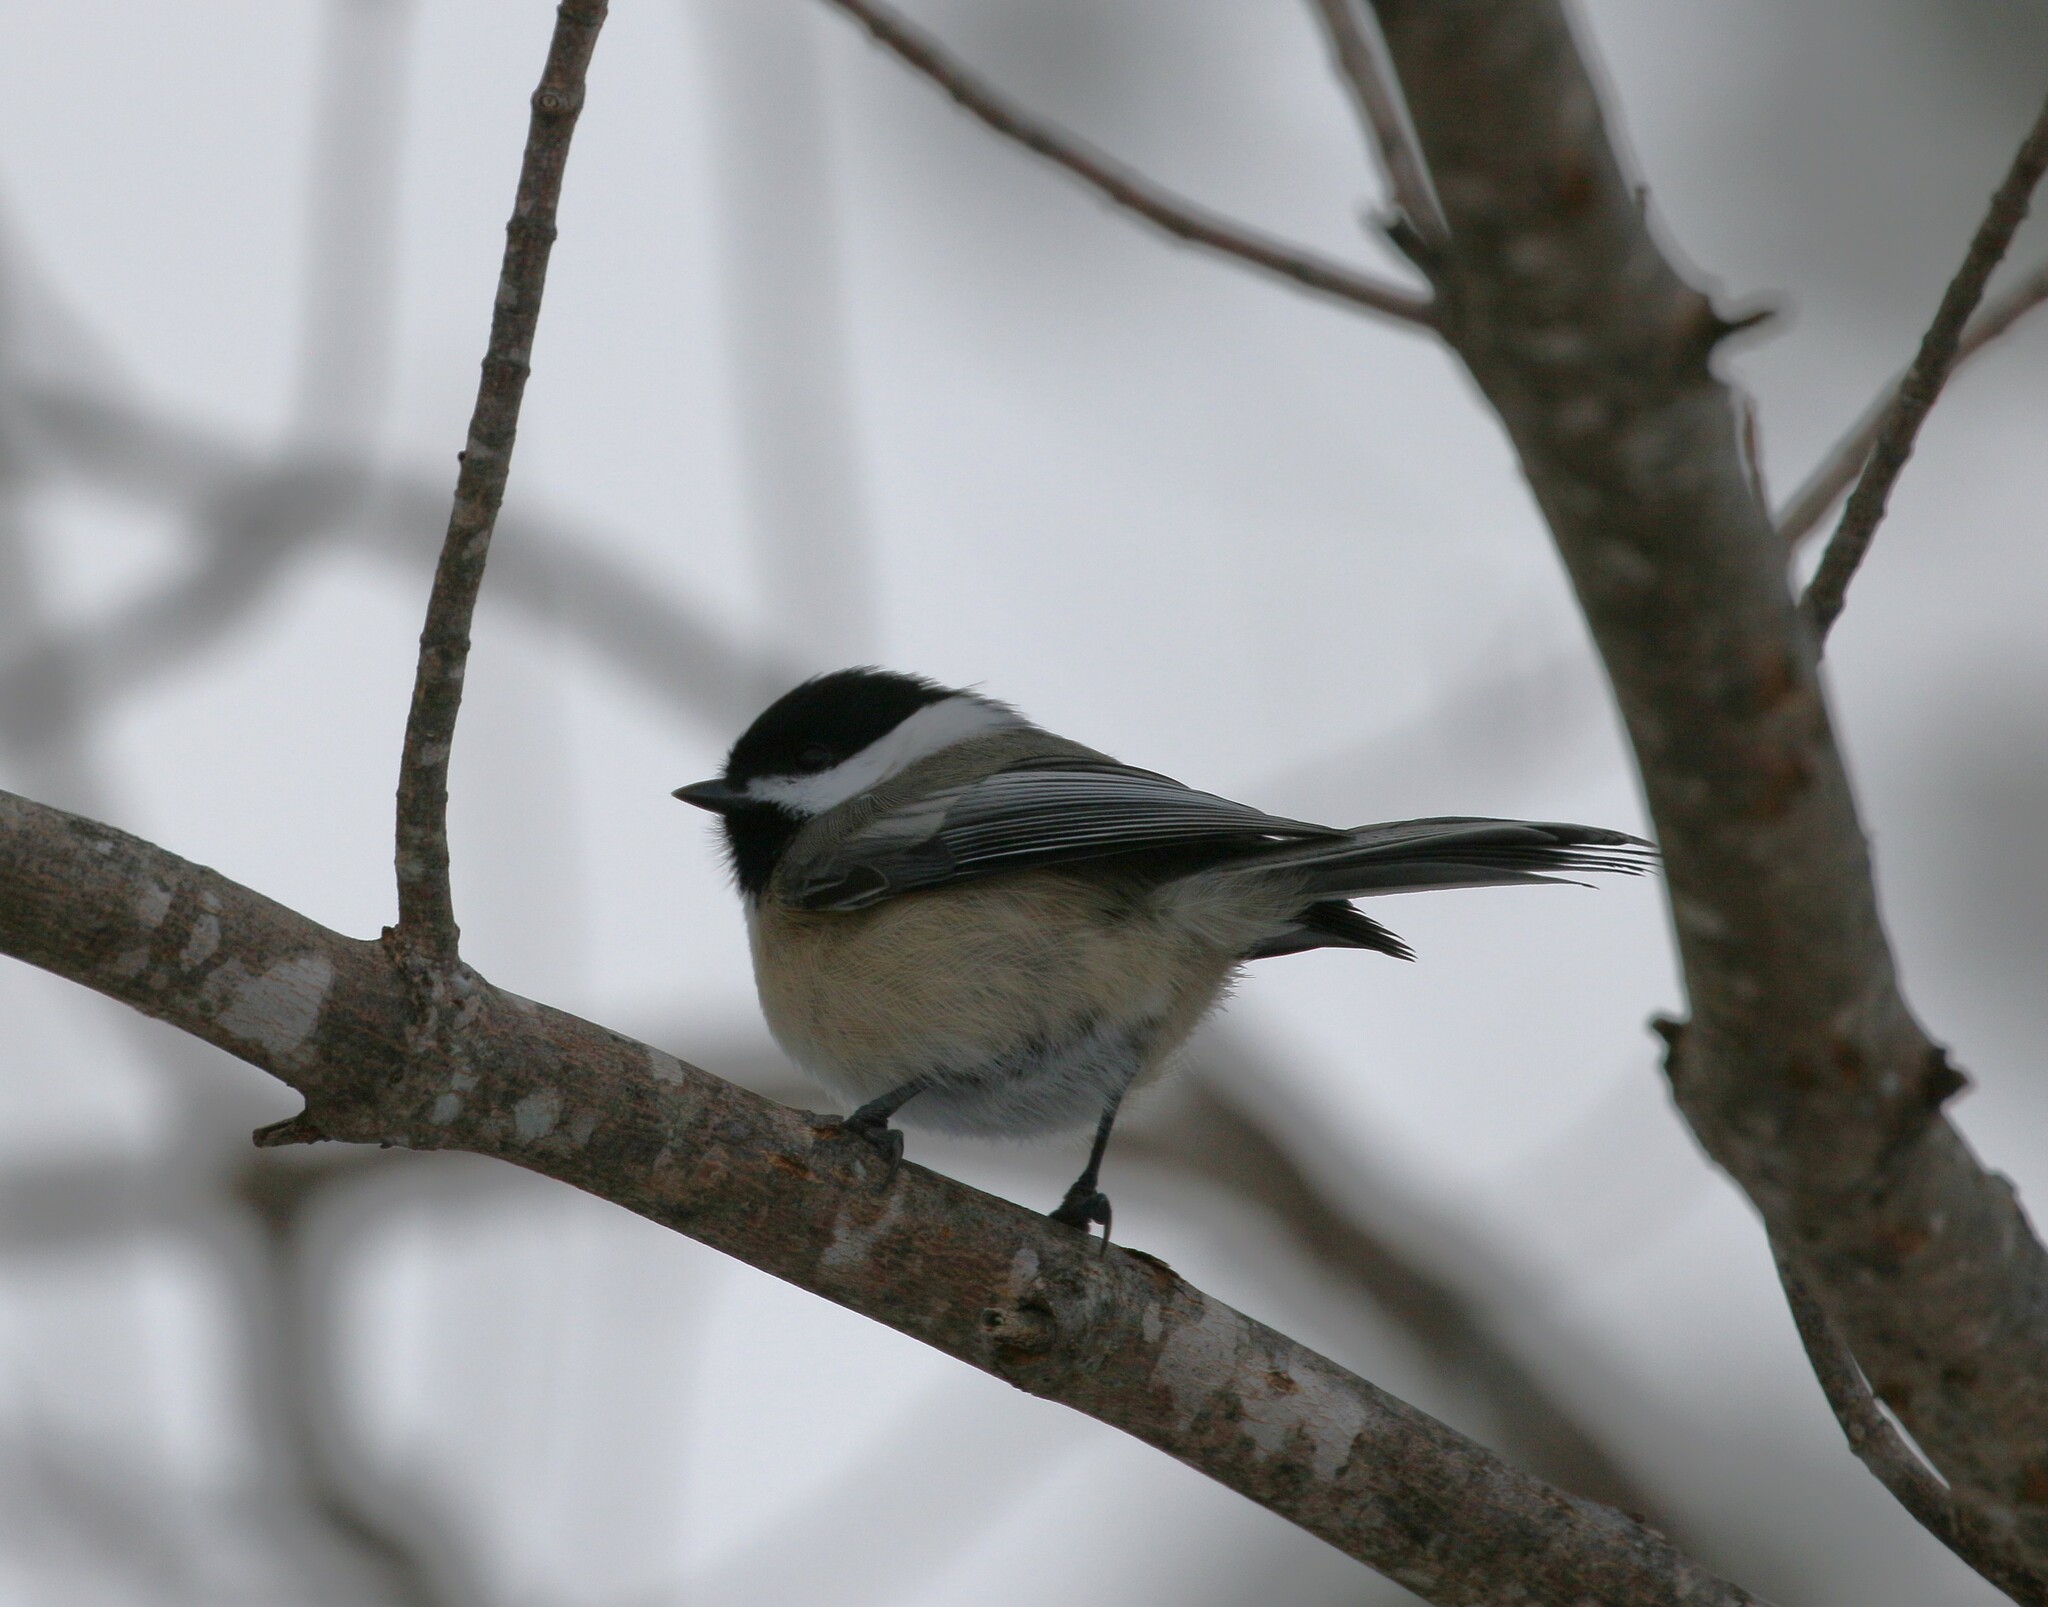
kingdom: Animalia
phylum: Chordata
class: Aves
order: Passeriformes
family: Paridae
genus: Poecile
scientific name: Poecile atricapillus
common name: Black-capped chickadee
